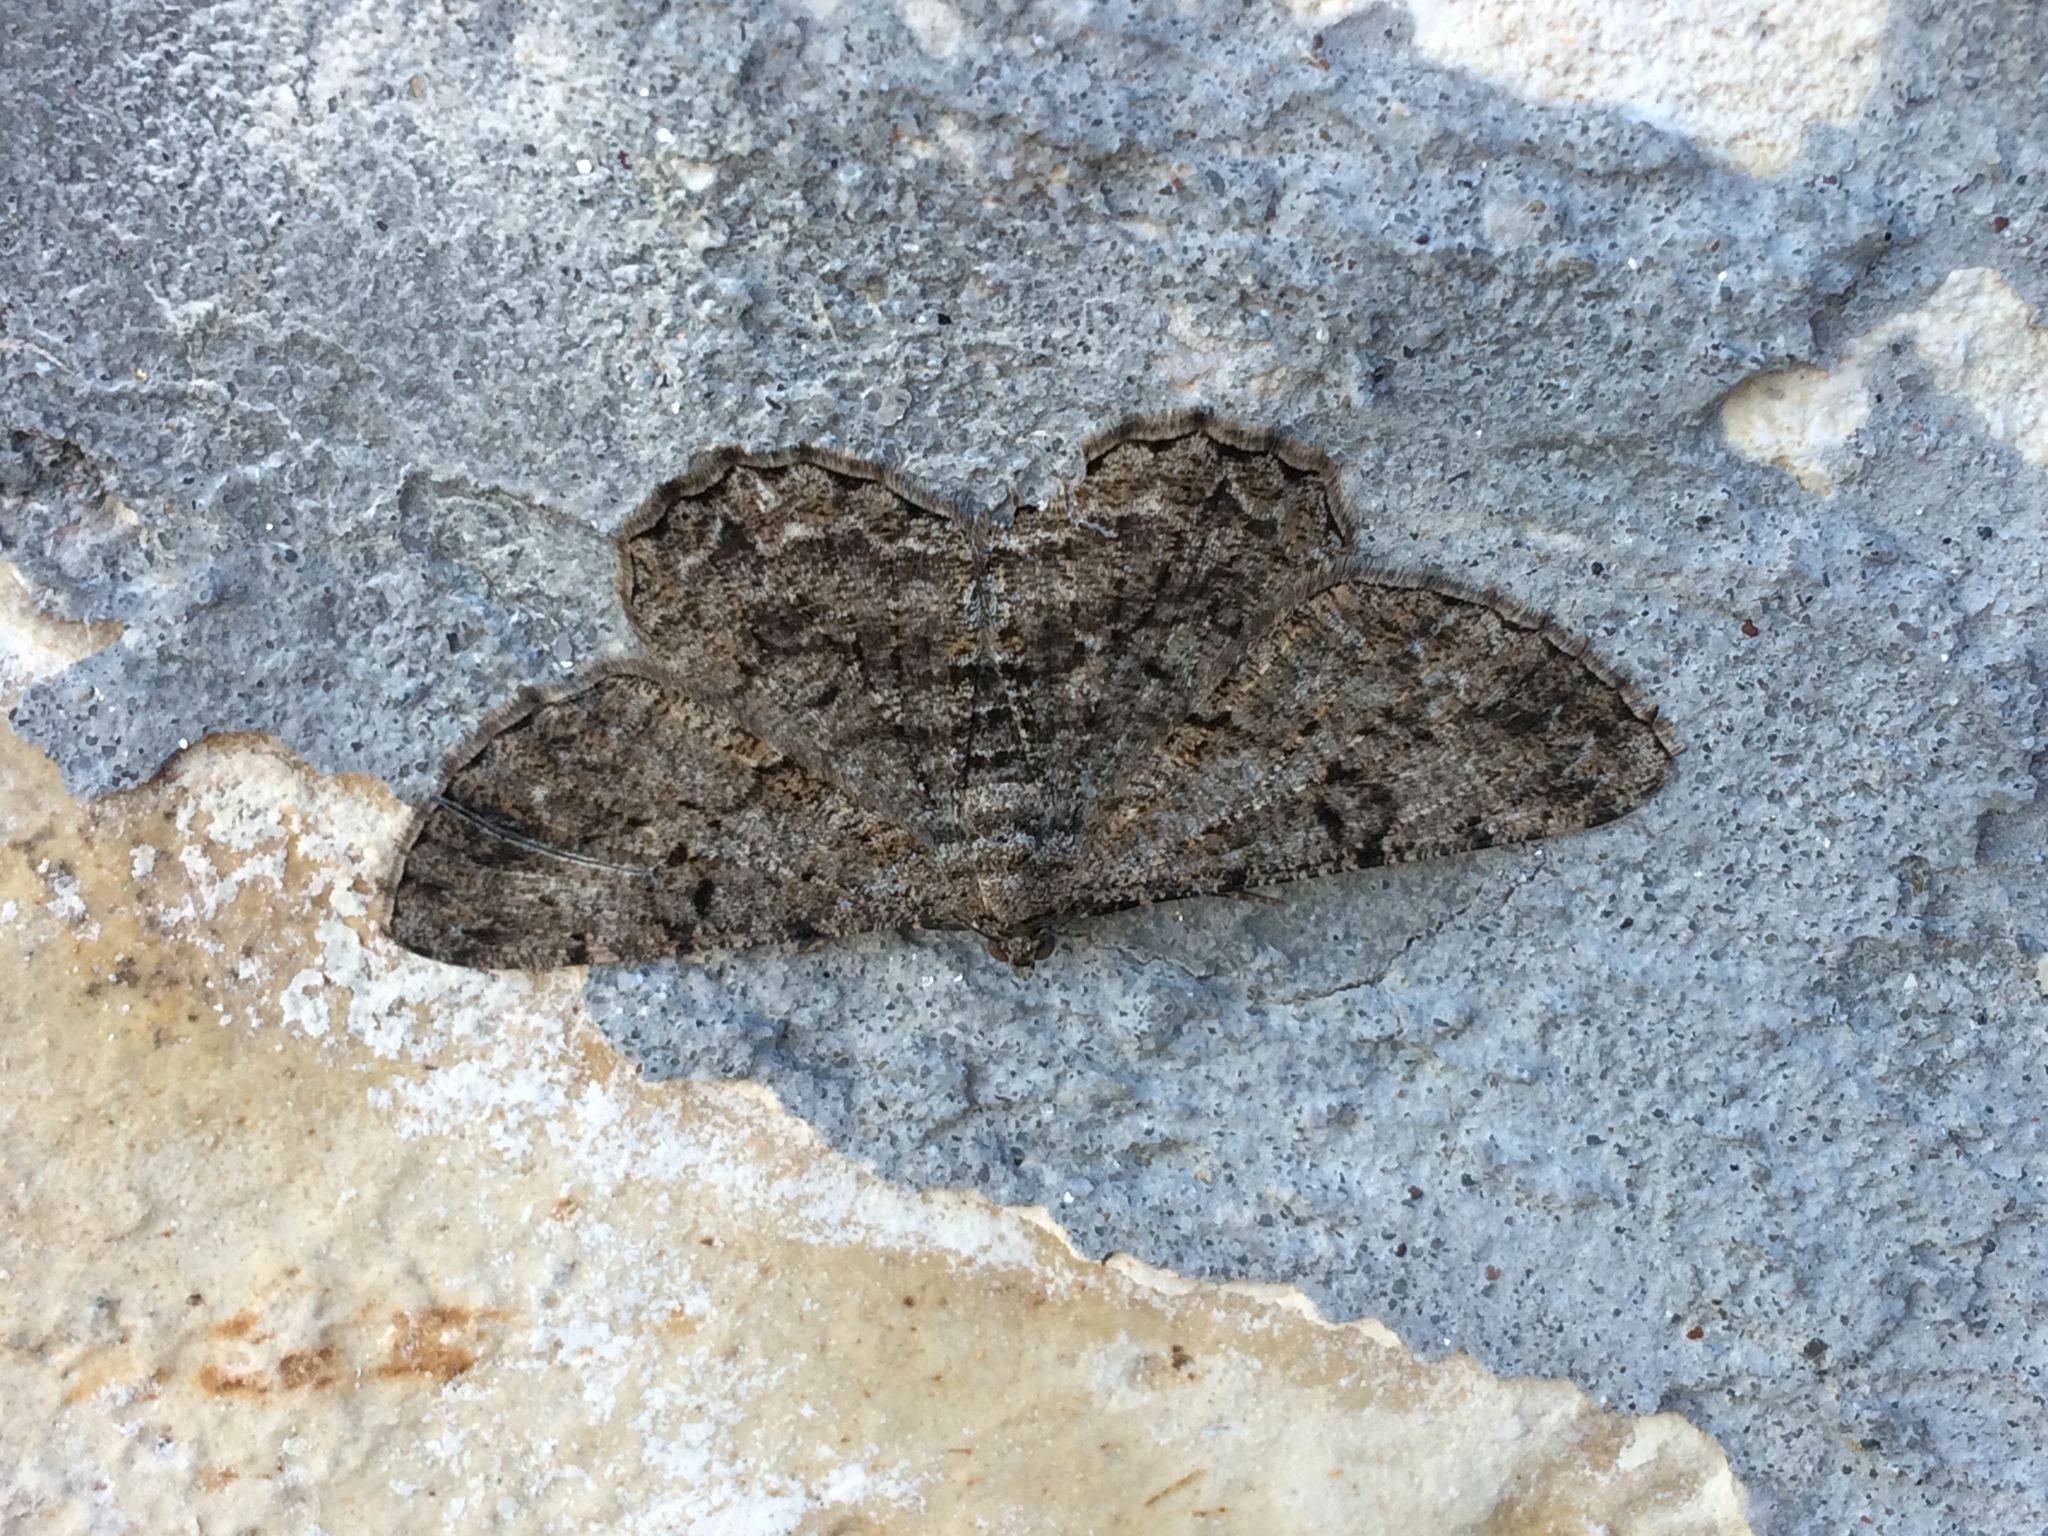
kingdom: Animalia
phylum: Arthropoda
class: Insecta
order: Lepidoptera
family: Geometridae
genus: Peribatodes
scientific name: Peribatodes rhomboidaria
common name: Willow beauty
